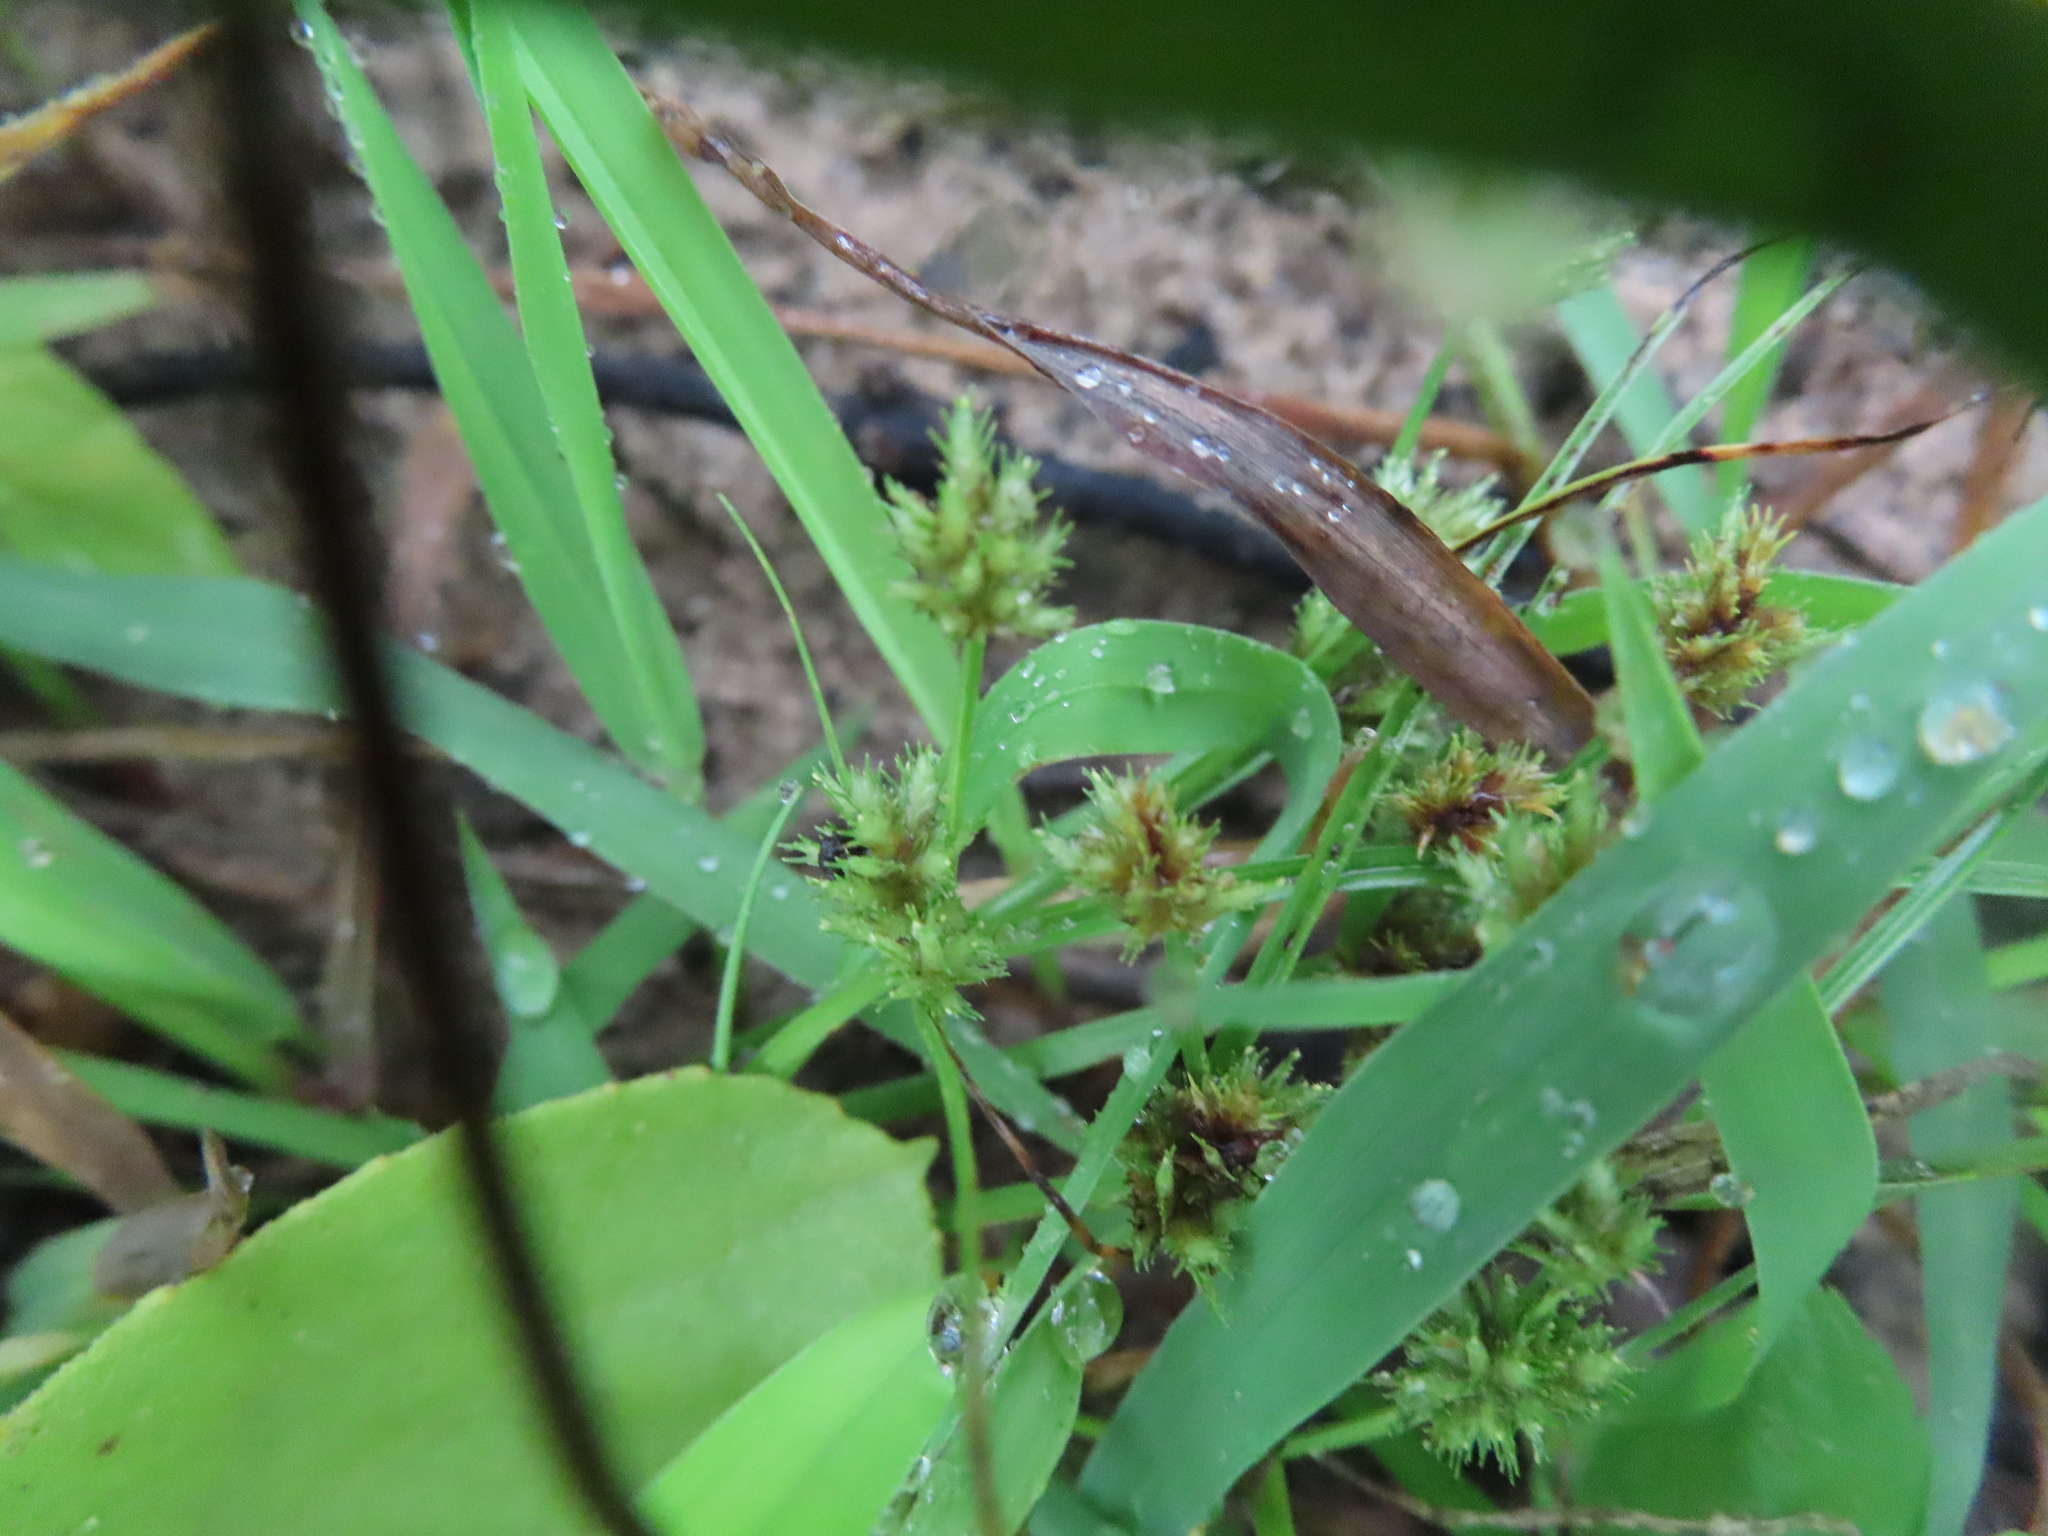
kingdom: Plantae
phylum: Tracheophyta
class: Liliopsida
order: Poales
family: Cyperaceae
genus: Cyperus
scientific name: Cyperus squarrosus
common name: Awned cyperus
